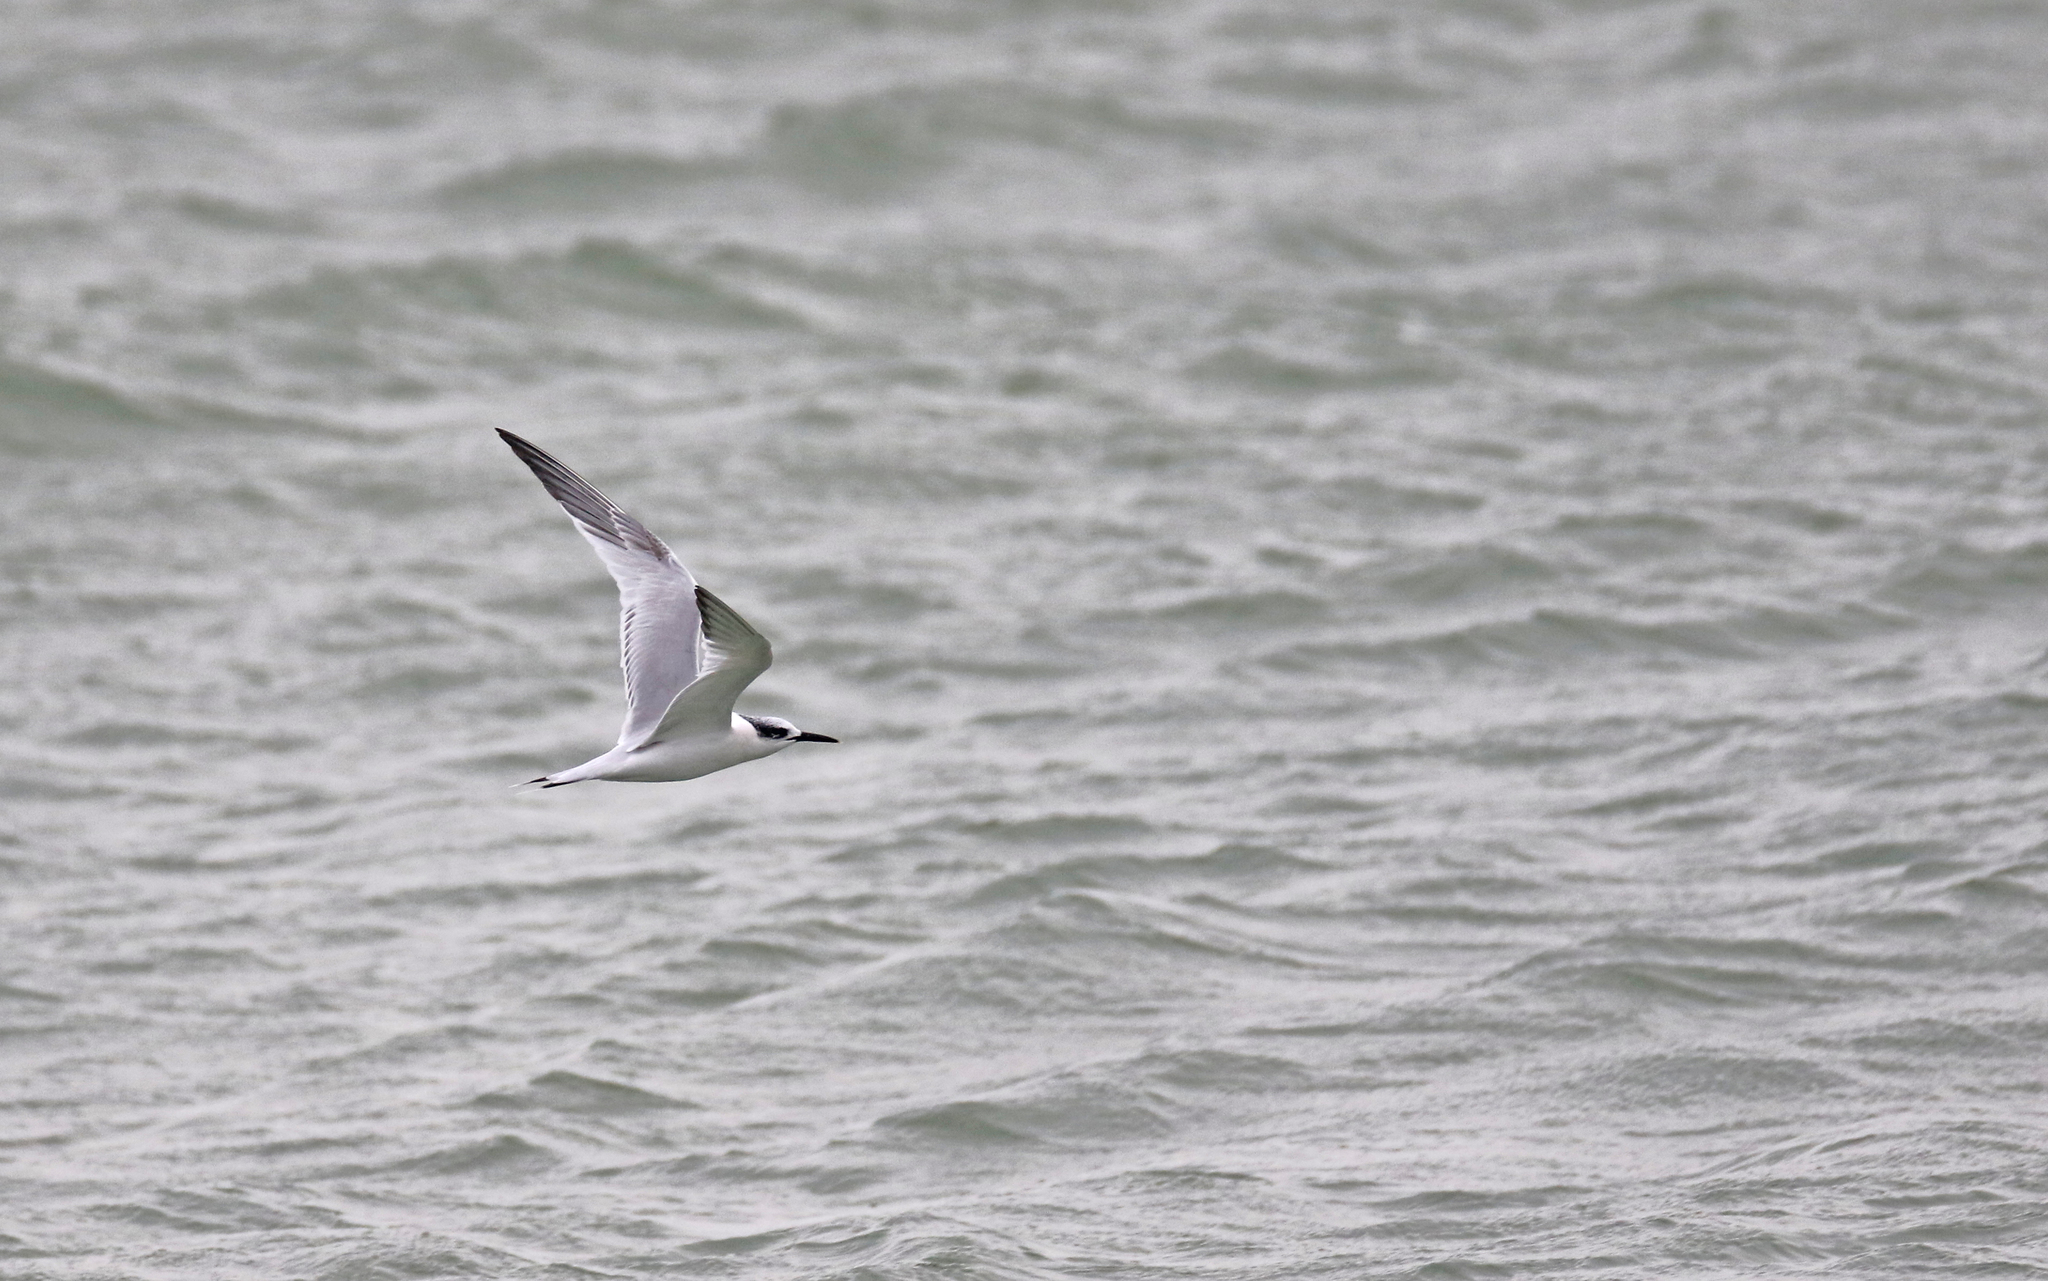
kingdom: Animalia
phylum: Chordata
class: Aves
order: Charadriiformes
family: Laridae
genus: Thalasseus
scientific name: Thalasseus sandvicensis
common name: Sandwich tern
